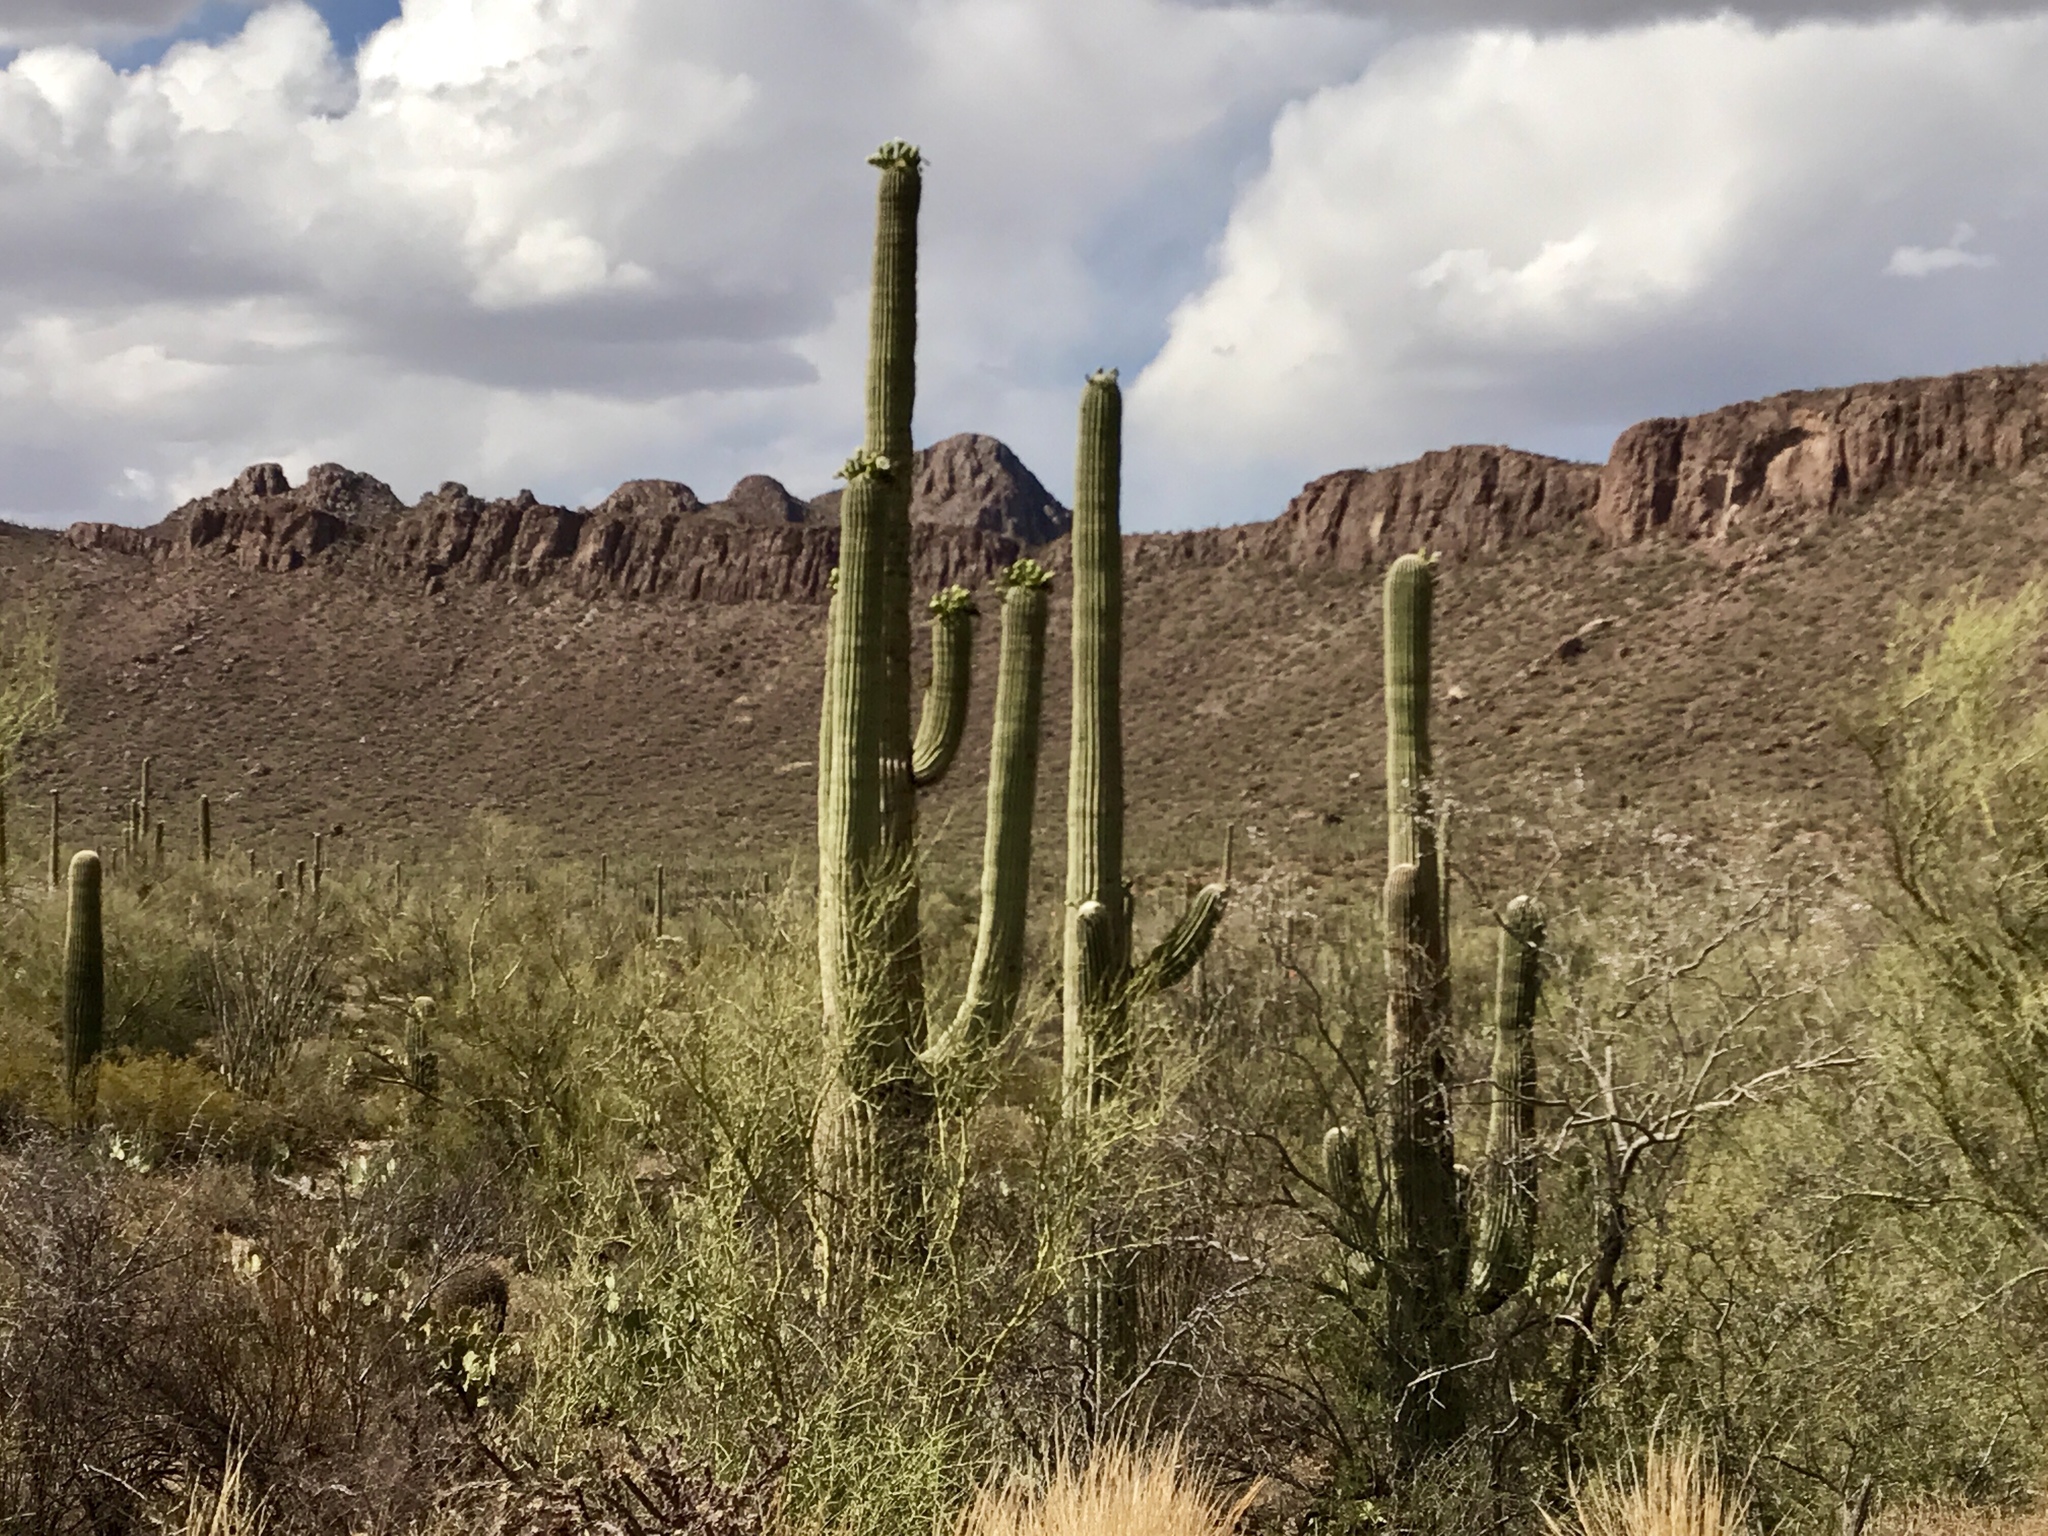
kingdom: Plantae
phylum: Tracheophyta
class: Magnoliopsida
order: Caryophyllales
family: Cactaceae
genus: Carnegiea
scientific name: Carnegiea gigantea
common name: Saguaro
